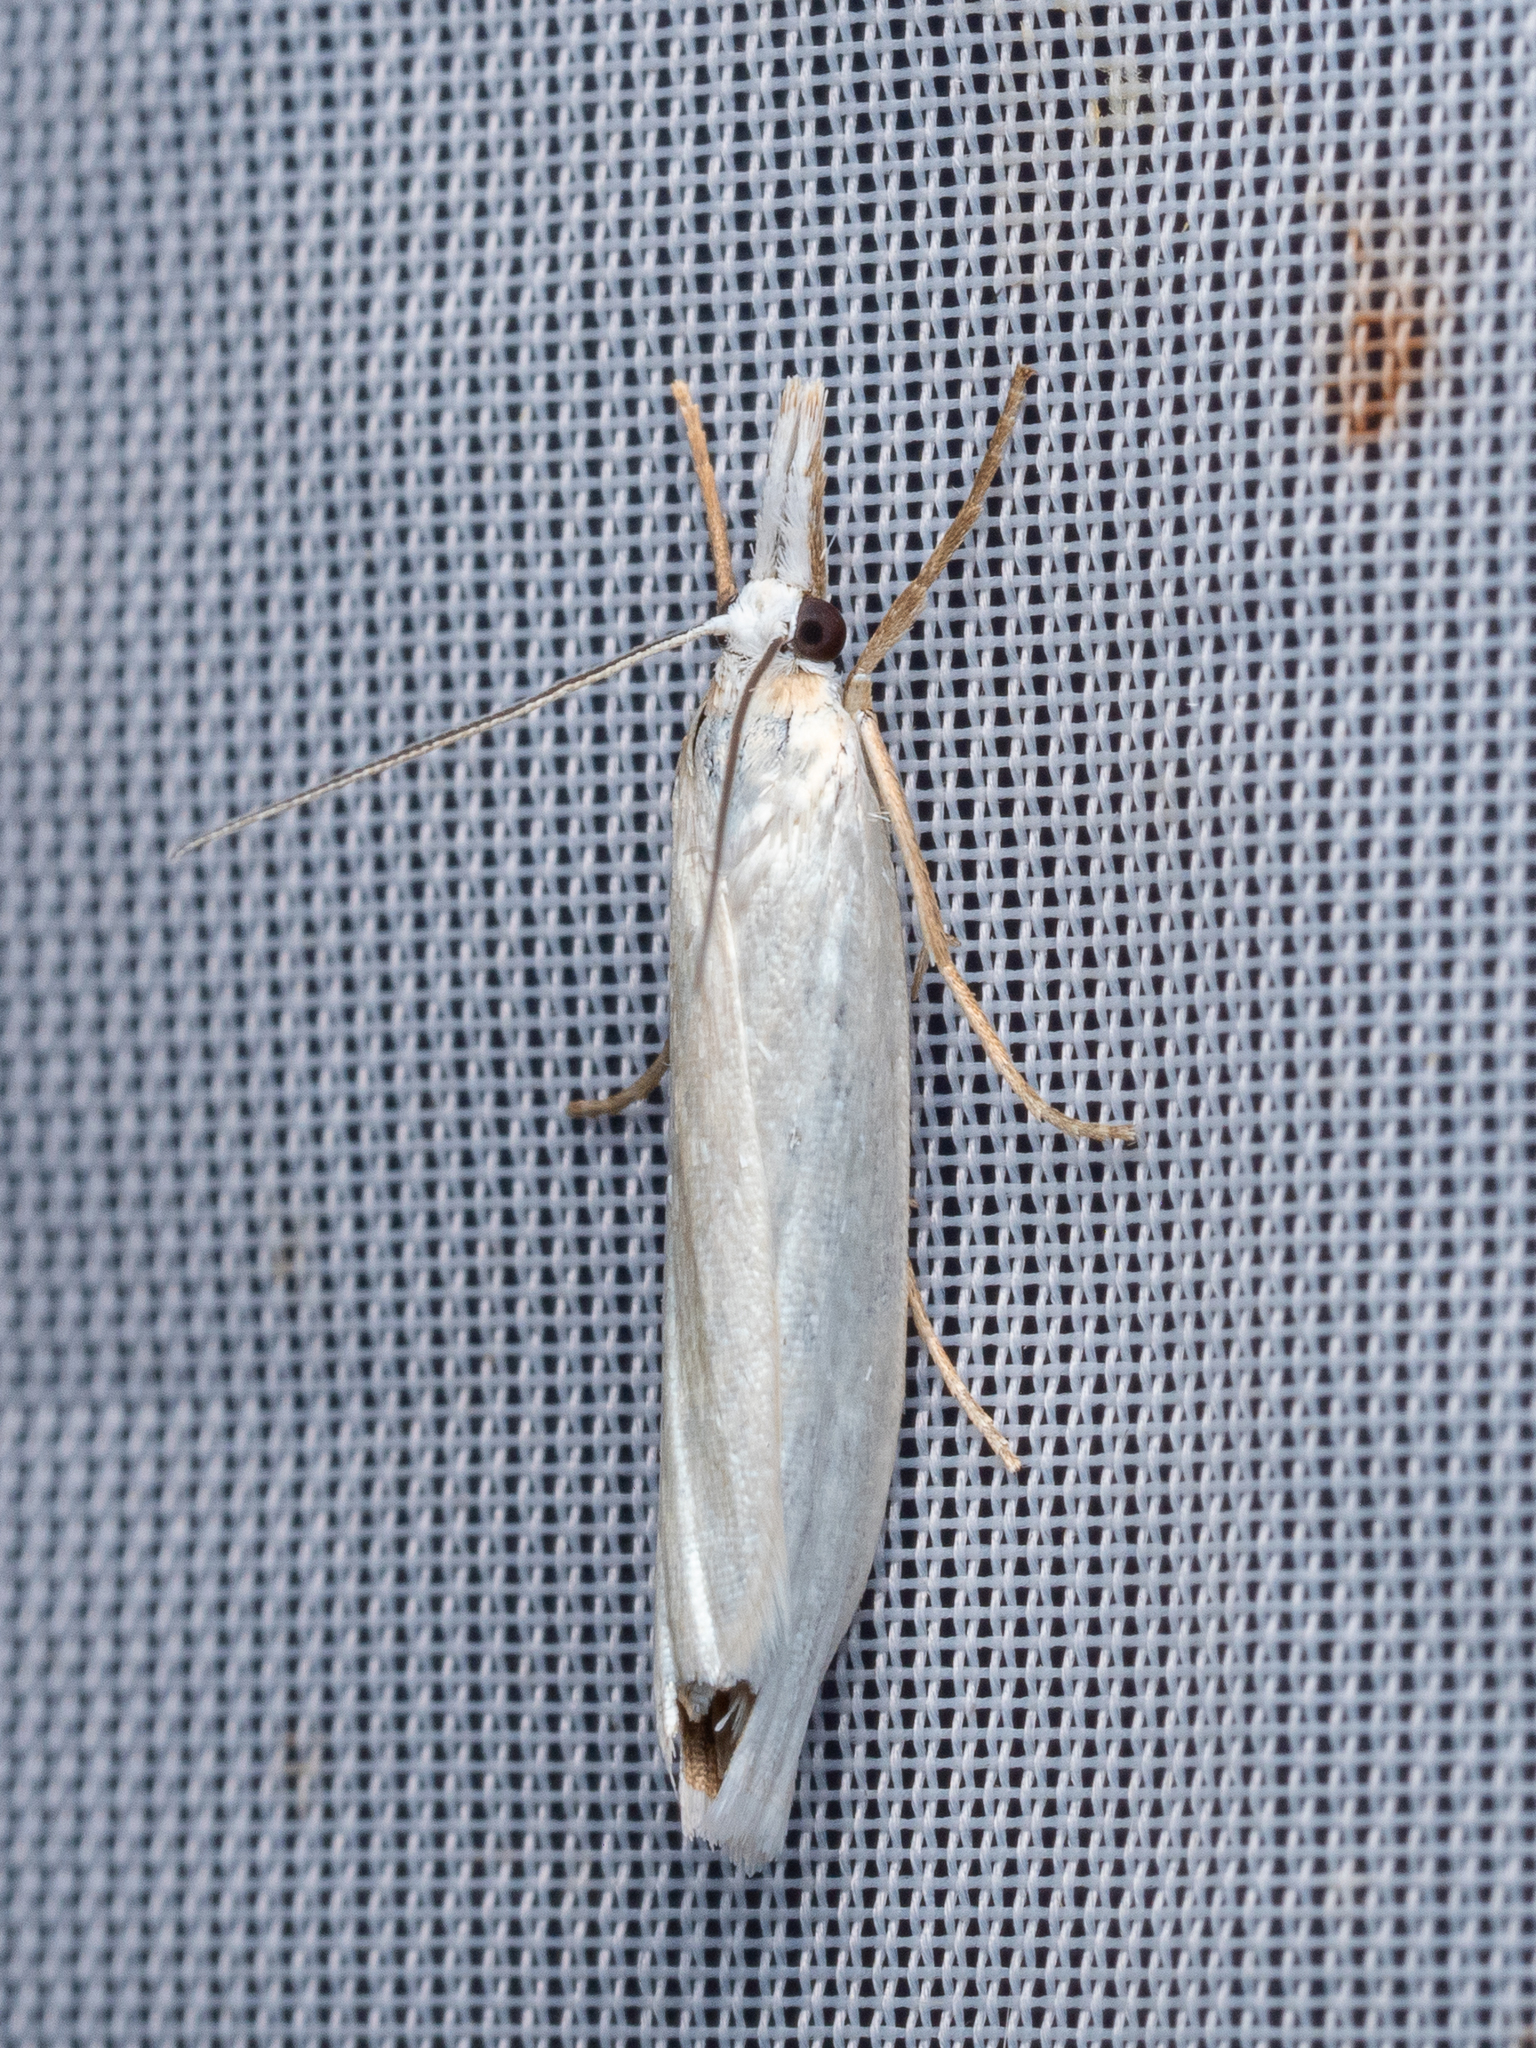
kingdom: Animalia
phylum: Arthropoda
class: Insecta
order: Lepidoptera
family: Crambidae
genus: Crambus
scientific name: Crambus perlellus
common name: Yellow satin veneer
